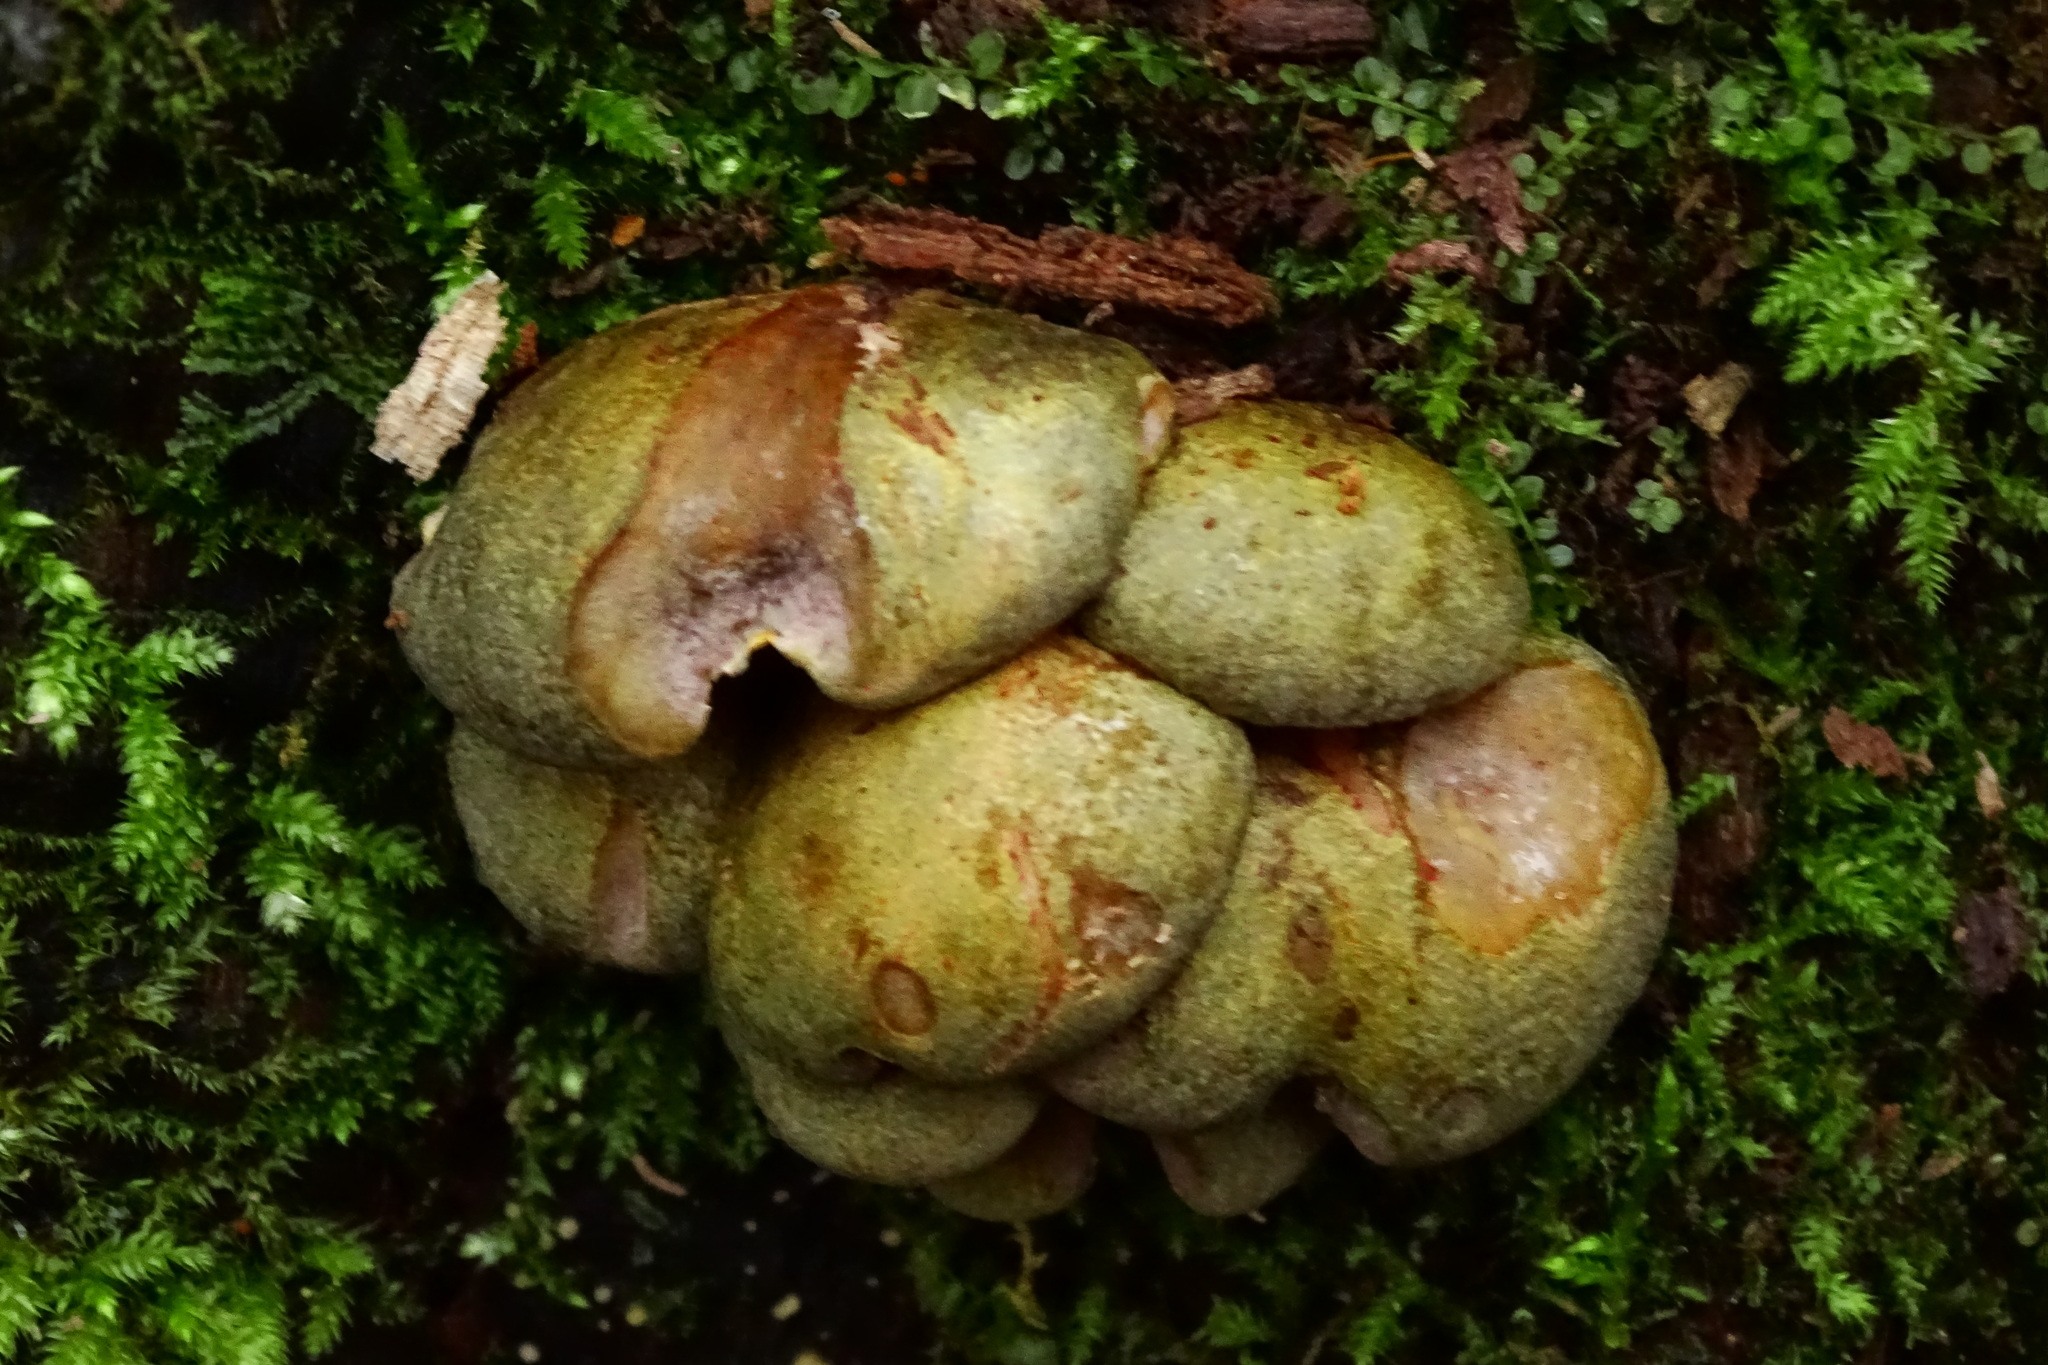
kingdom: Fungi
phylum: Basidiomycota
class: Agaricomycetes
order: Agaricales
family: Sarcomyxaceae
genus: Sarcomyxa
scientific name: Sarcomyxa serotina
